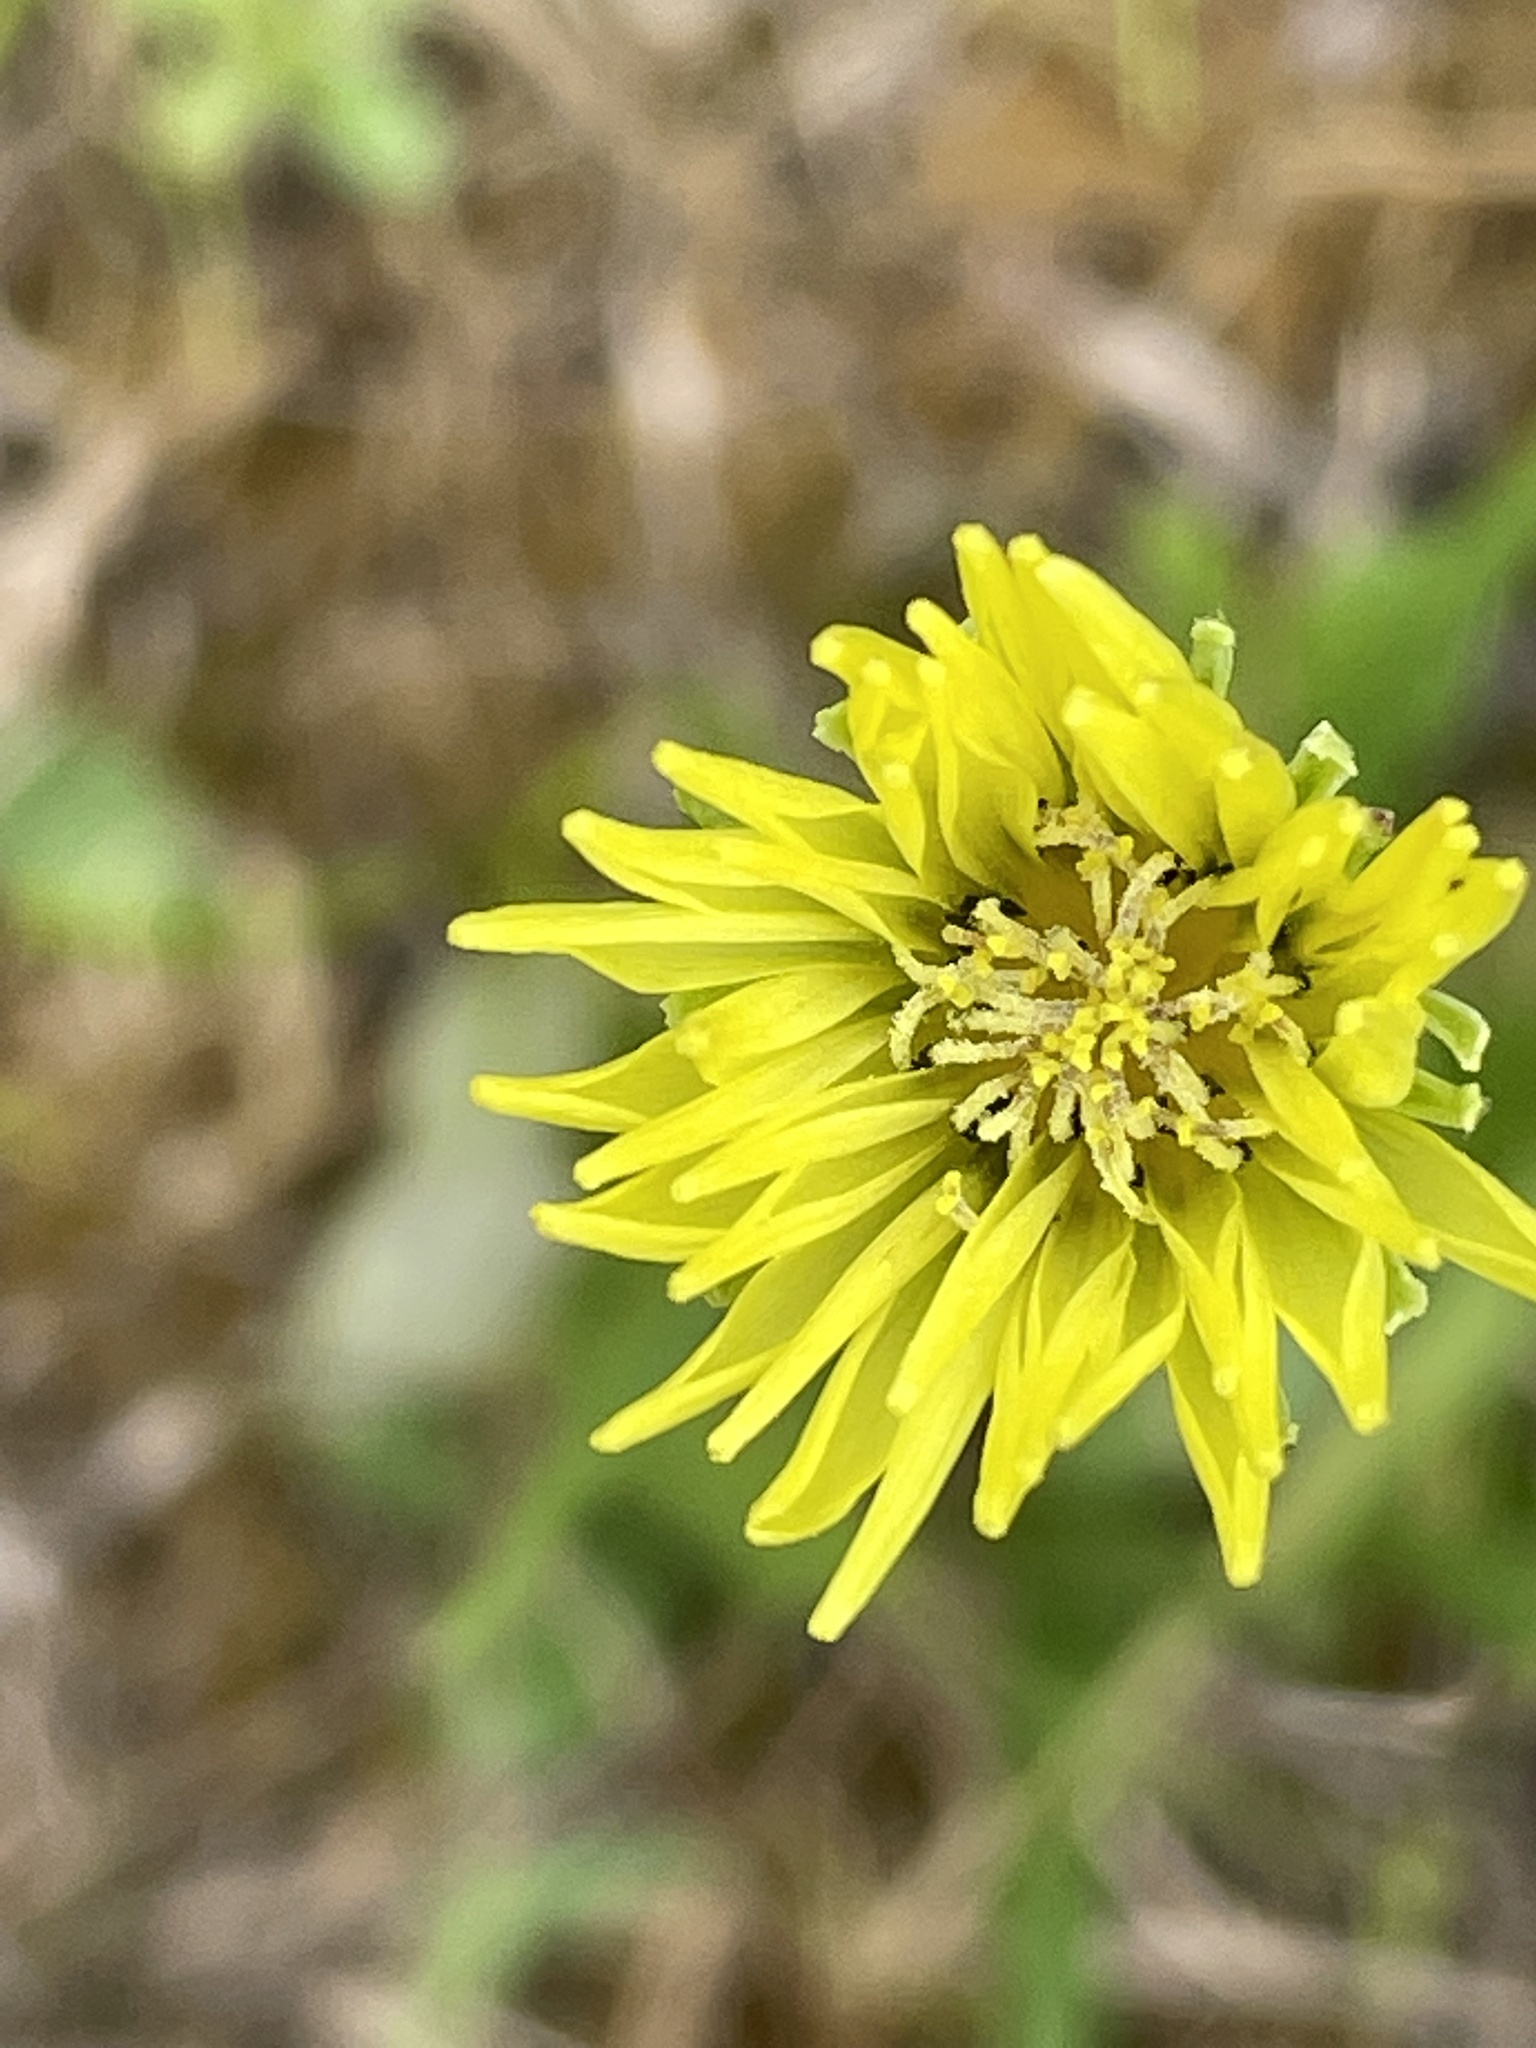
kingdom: Plantae
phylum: Tracheophyta
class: Magnoliopsida
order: Asterales
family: Asteraceae
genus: Pyrrhopappus
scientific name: Pyrrhopappus carolinianus
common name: Carolina desert-chicory
